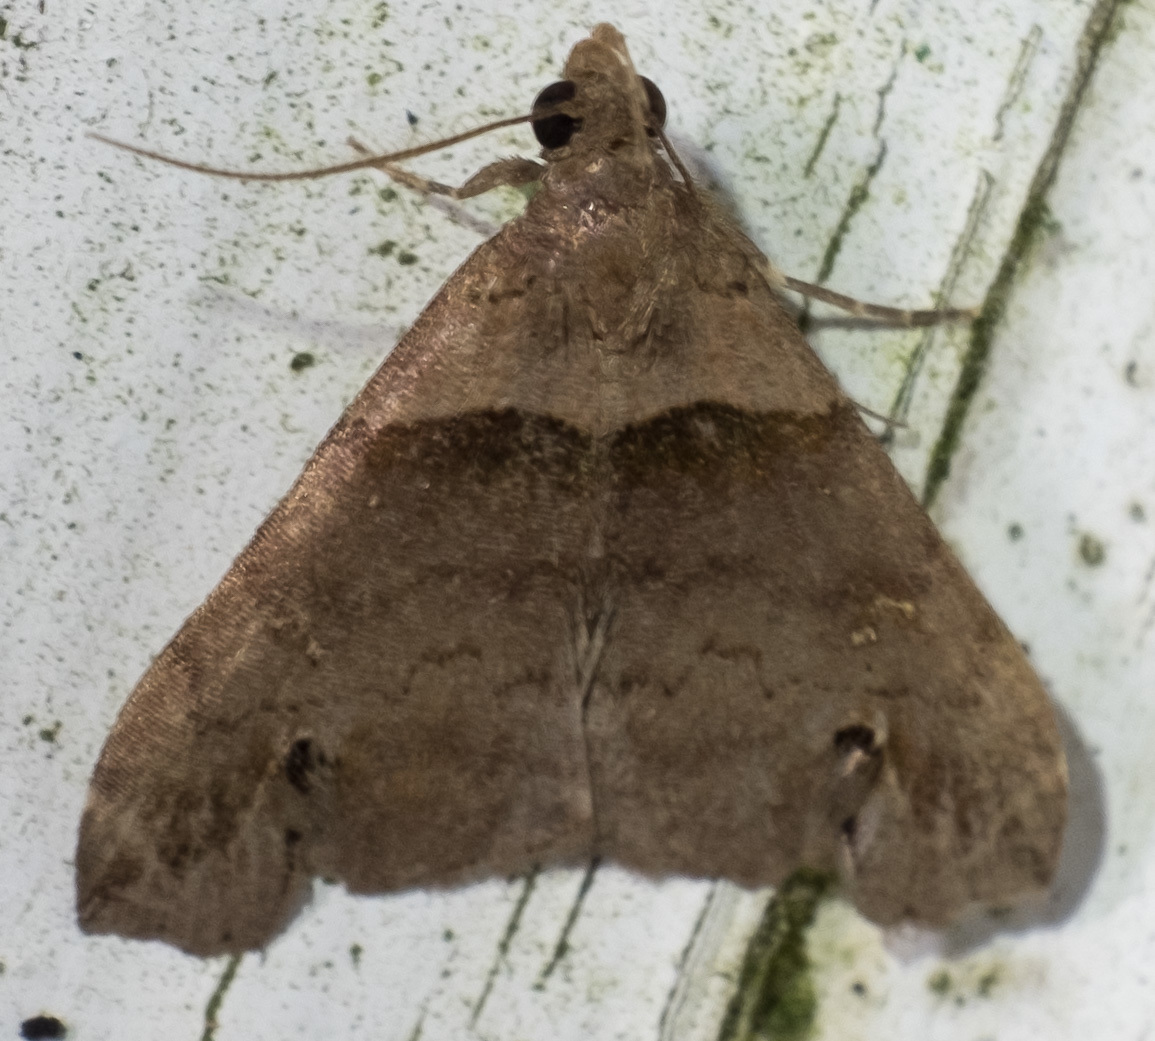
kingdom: Animalia
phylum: Arthropoda
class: Insecta
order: Lepidoptera
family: Erebidae
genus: Lascoria
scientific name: Lascoria ambigualis
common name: Ambiguous moth
